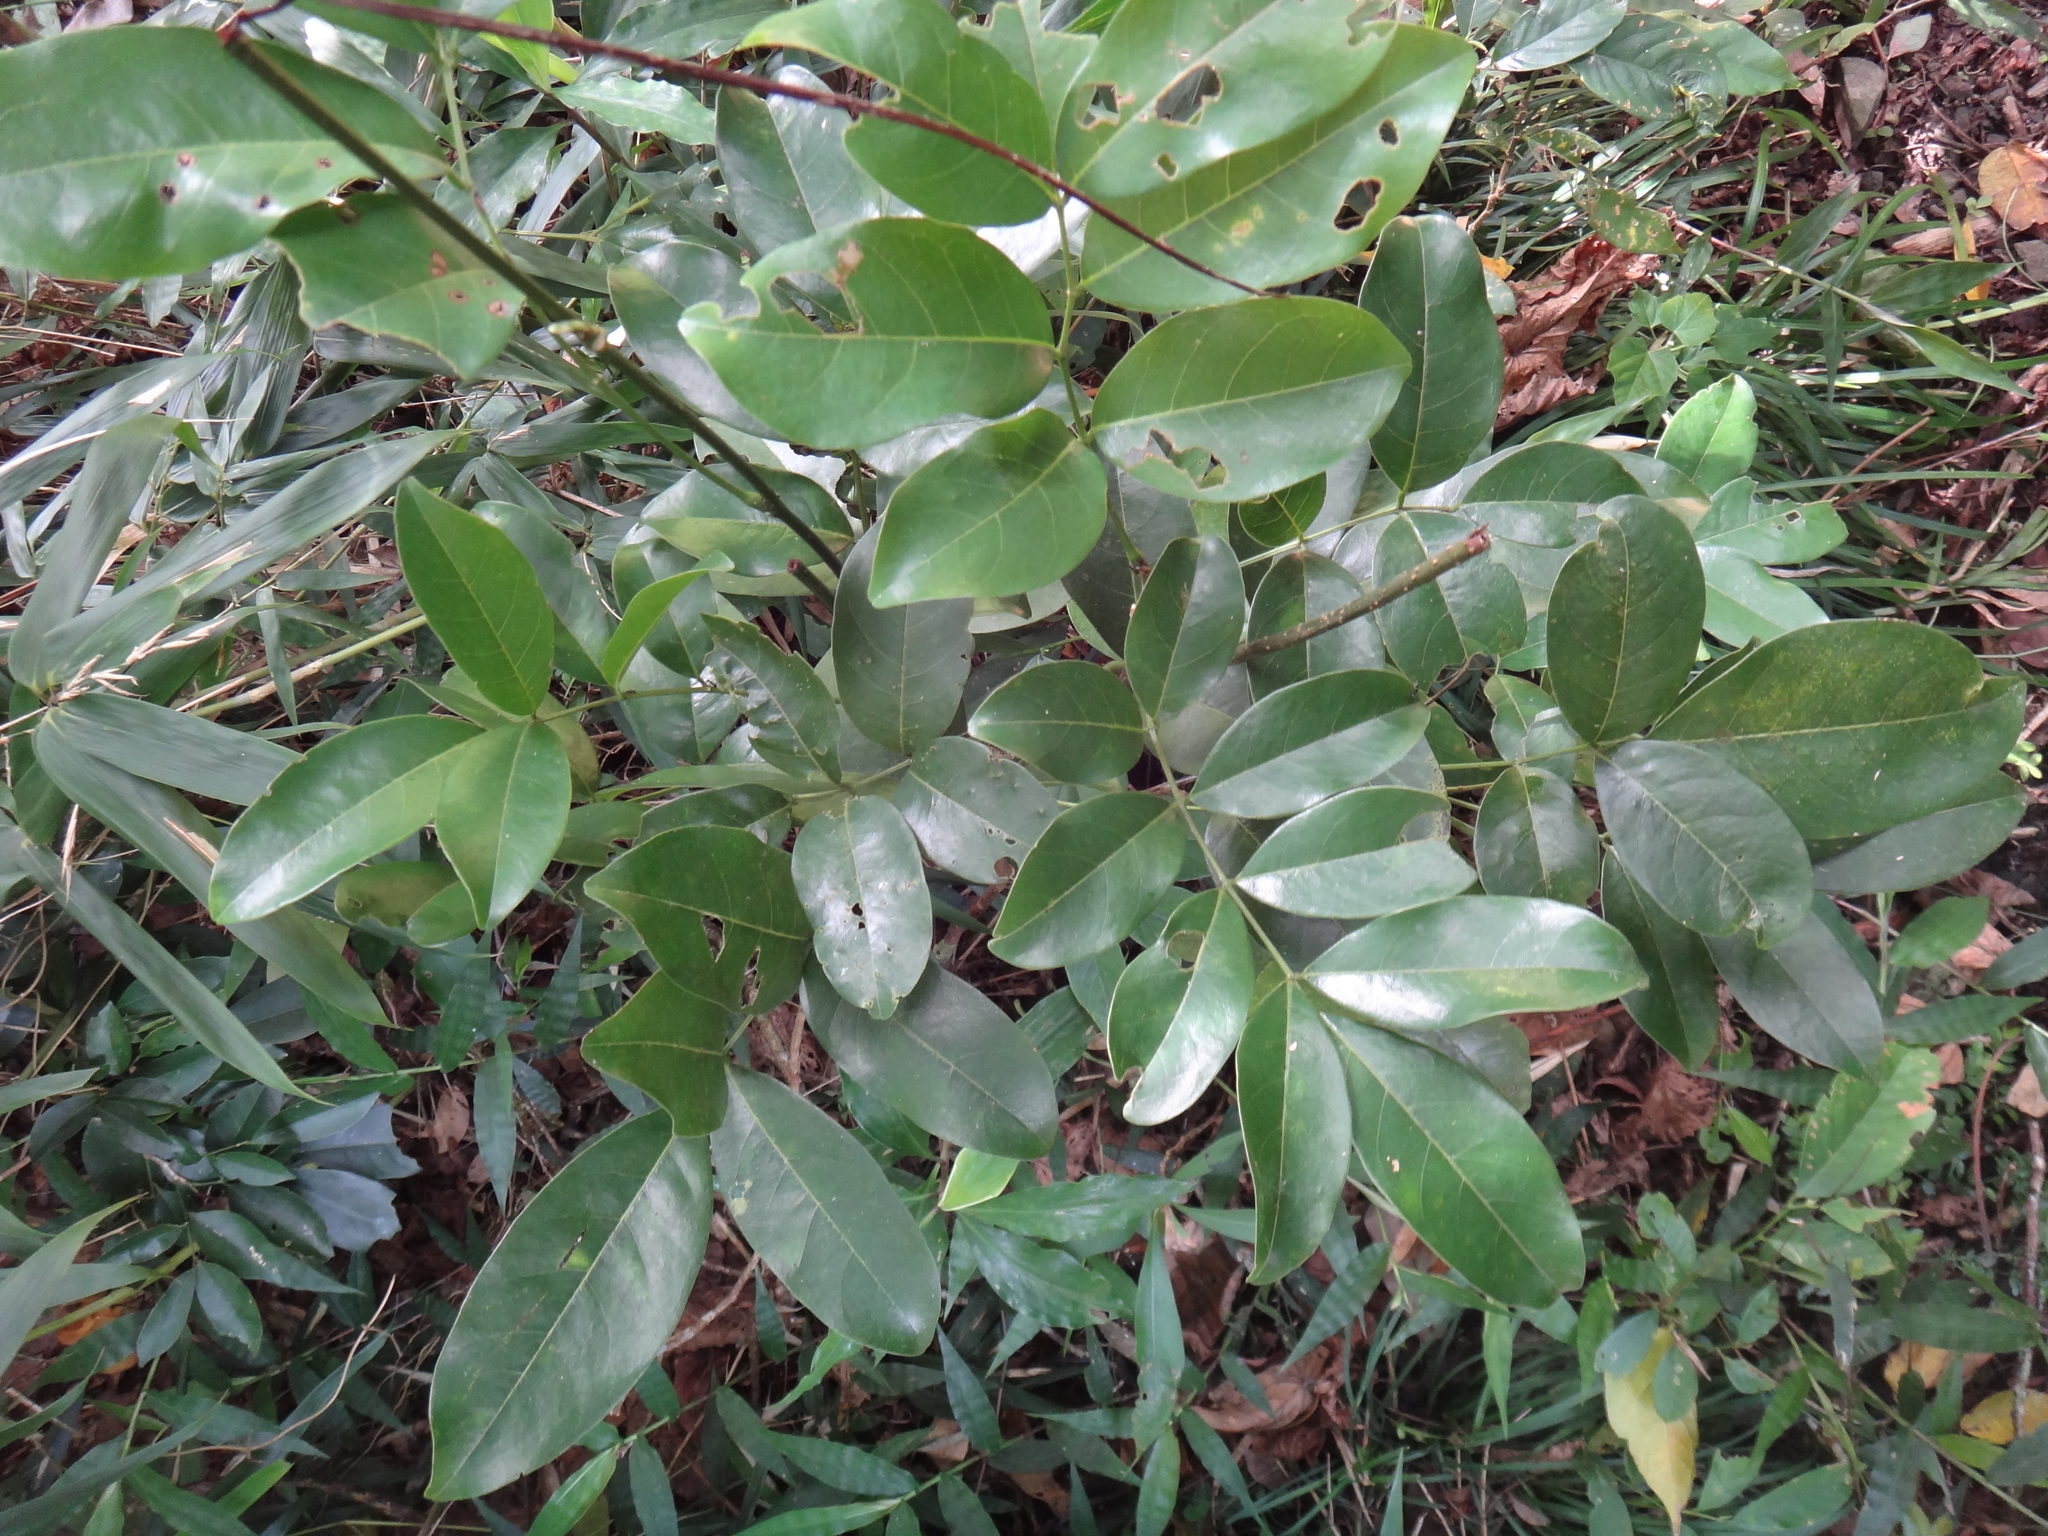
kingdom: Plantae
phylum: Tracheophyta
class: Magnoliopsida
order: Fabales
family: Fabaceae
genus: Wisteriopsis
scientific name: Wisteriopsis reticulata
